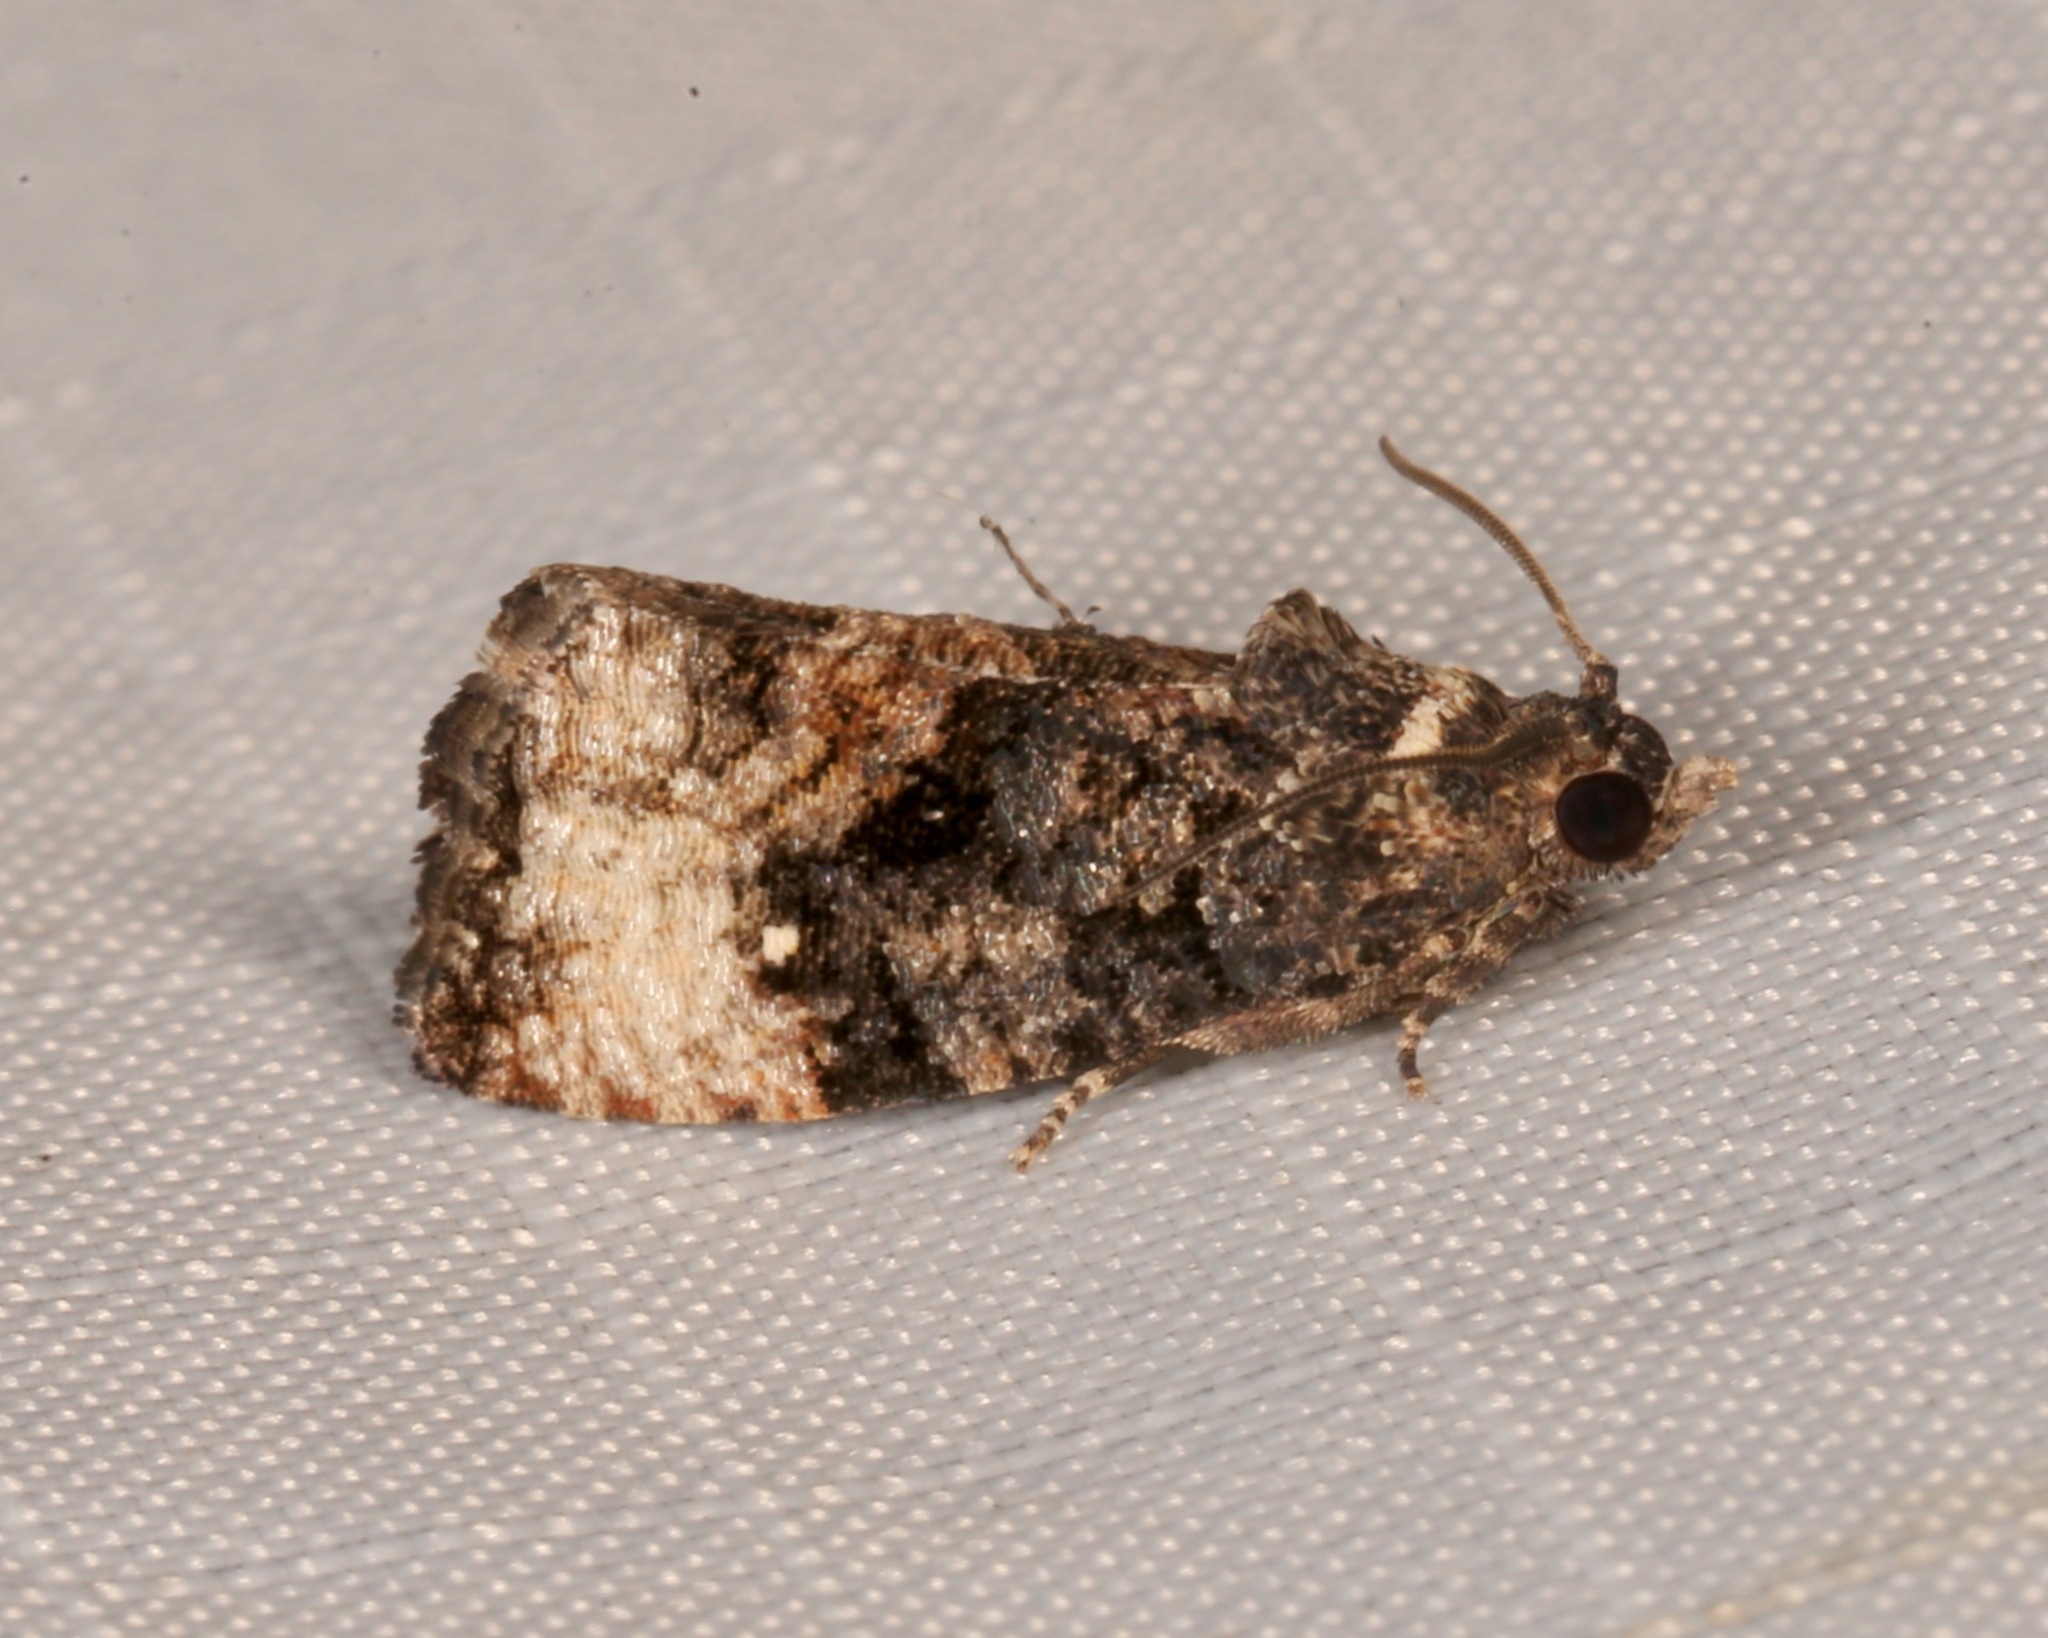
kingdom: Animalia
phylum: Arthropoda
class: Insecta
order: Lepidoptera
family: Tortricidae
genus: Gymnandrosoma
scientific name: Gymnandrosoma punctidiscanum
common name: Dotted ecdytolopha moth
